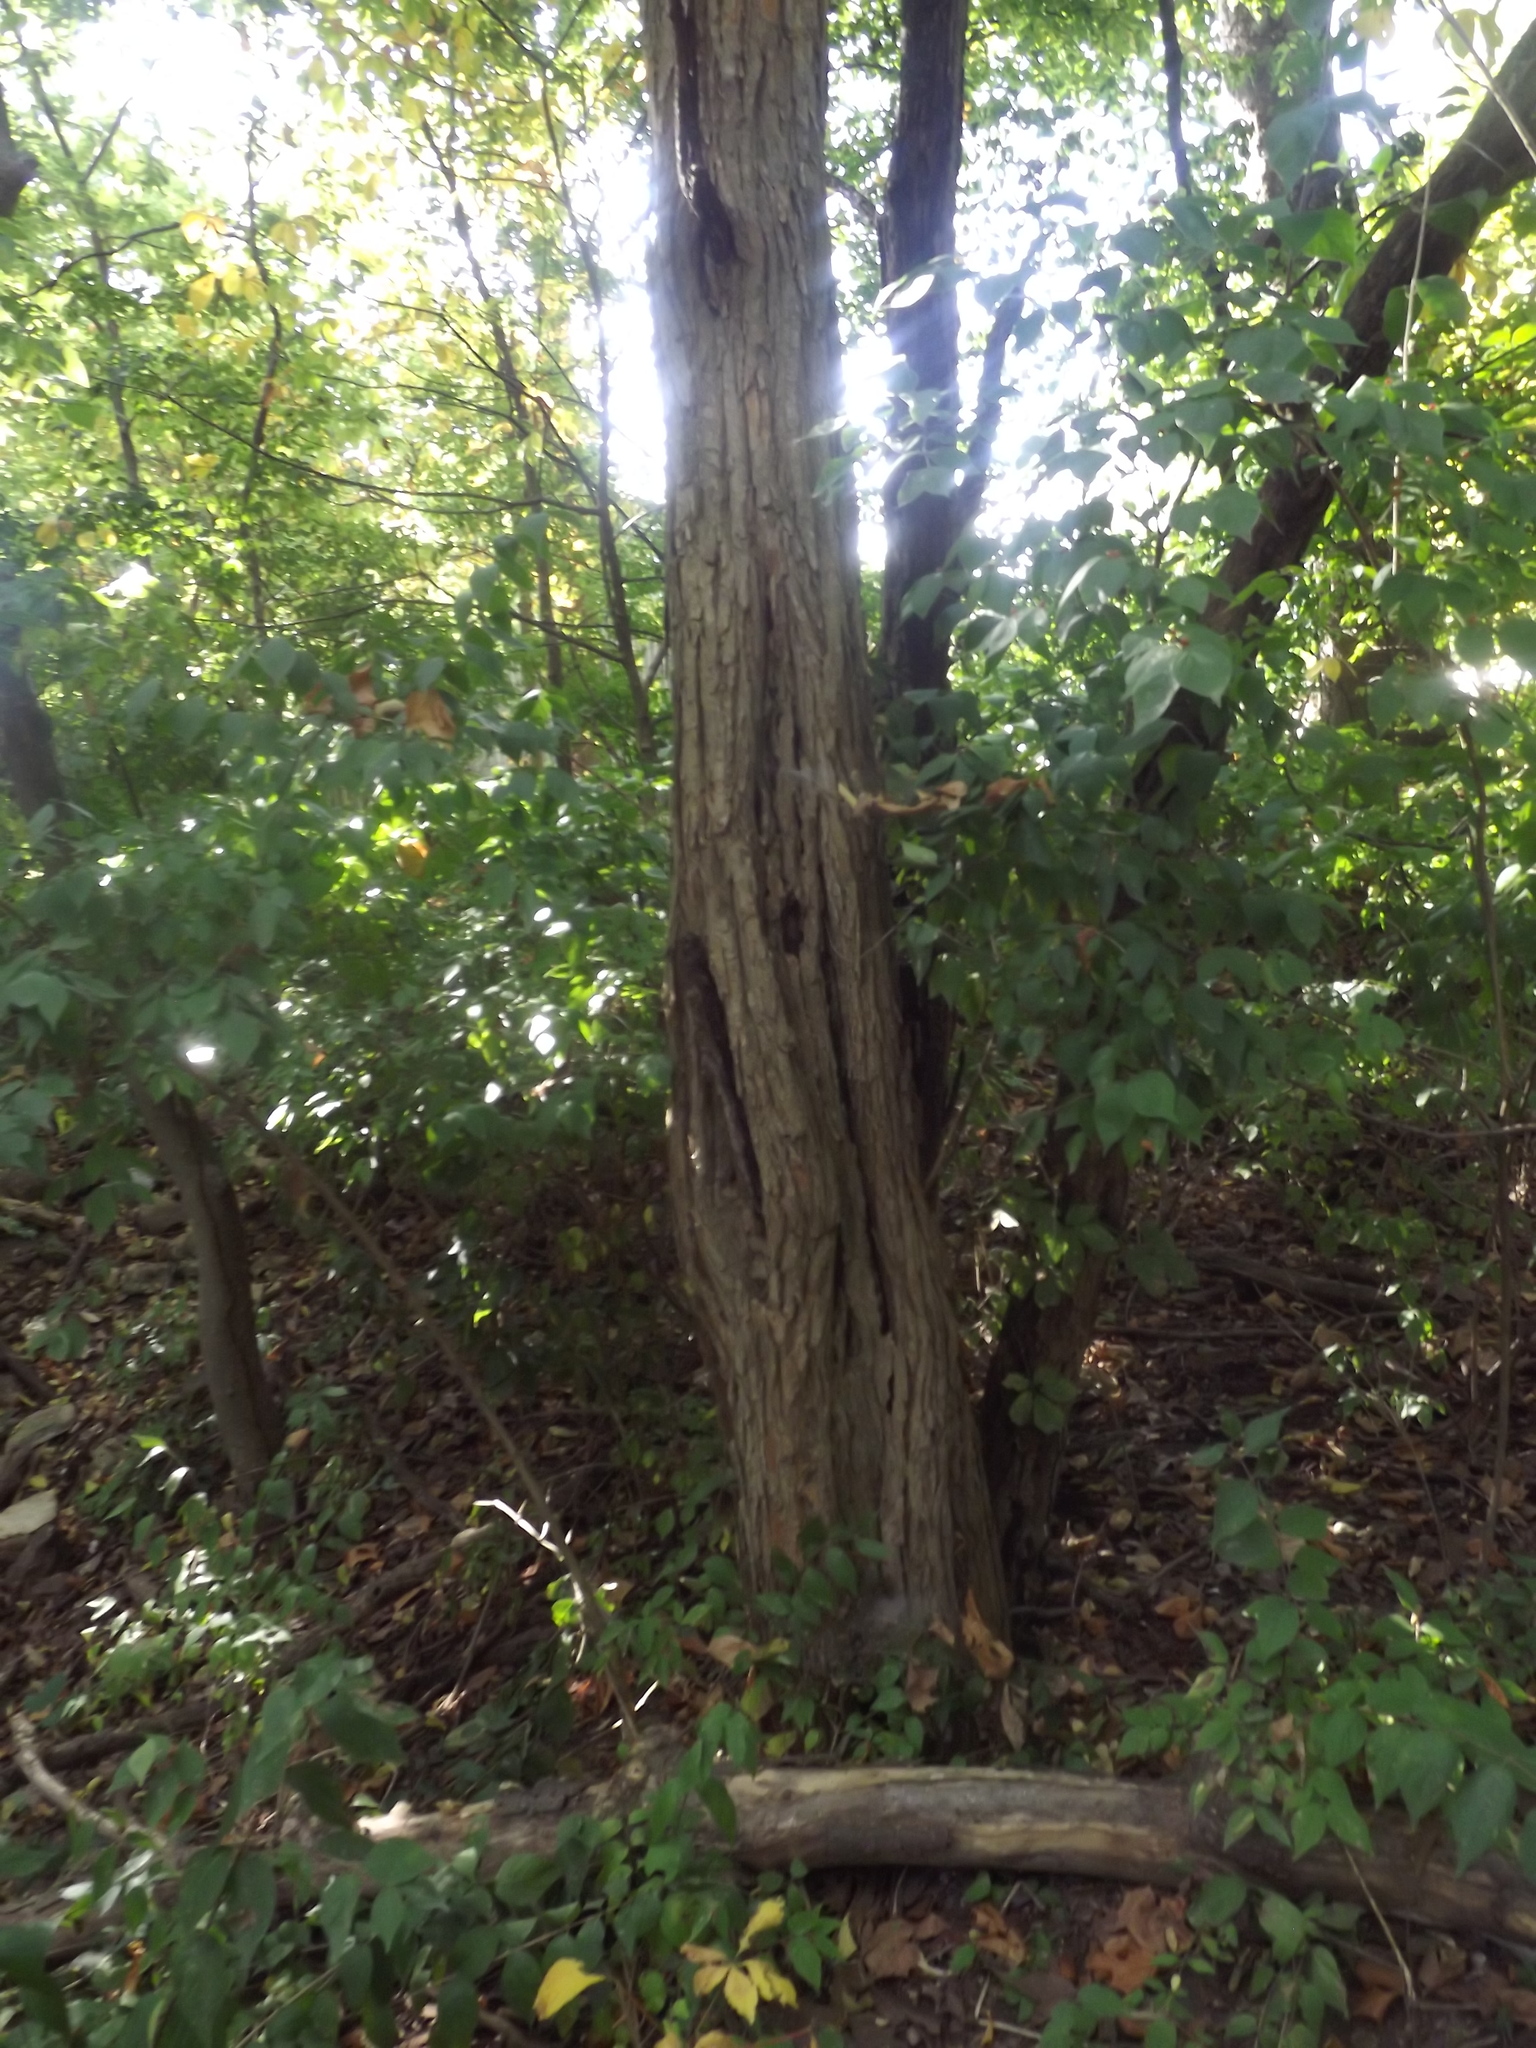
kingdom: Plantae
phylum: Tracheophyta
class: Magnoliopsida
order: Rosales
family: Moraceae
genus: Maclura
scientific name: Maclura pomifera
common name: Osage-orange
